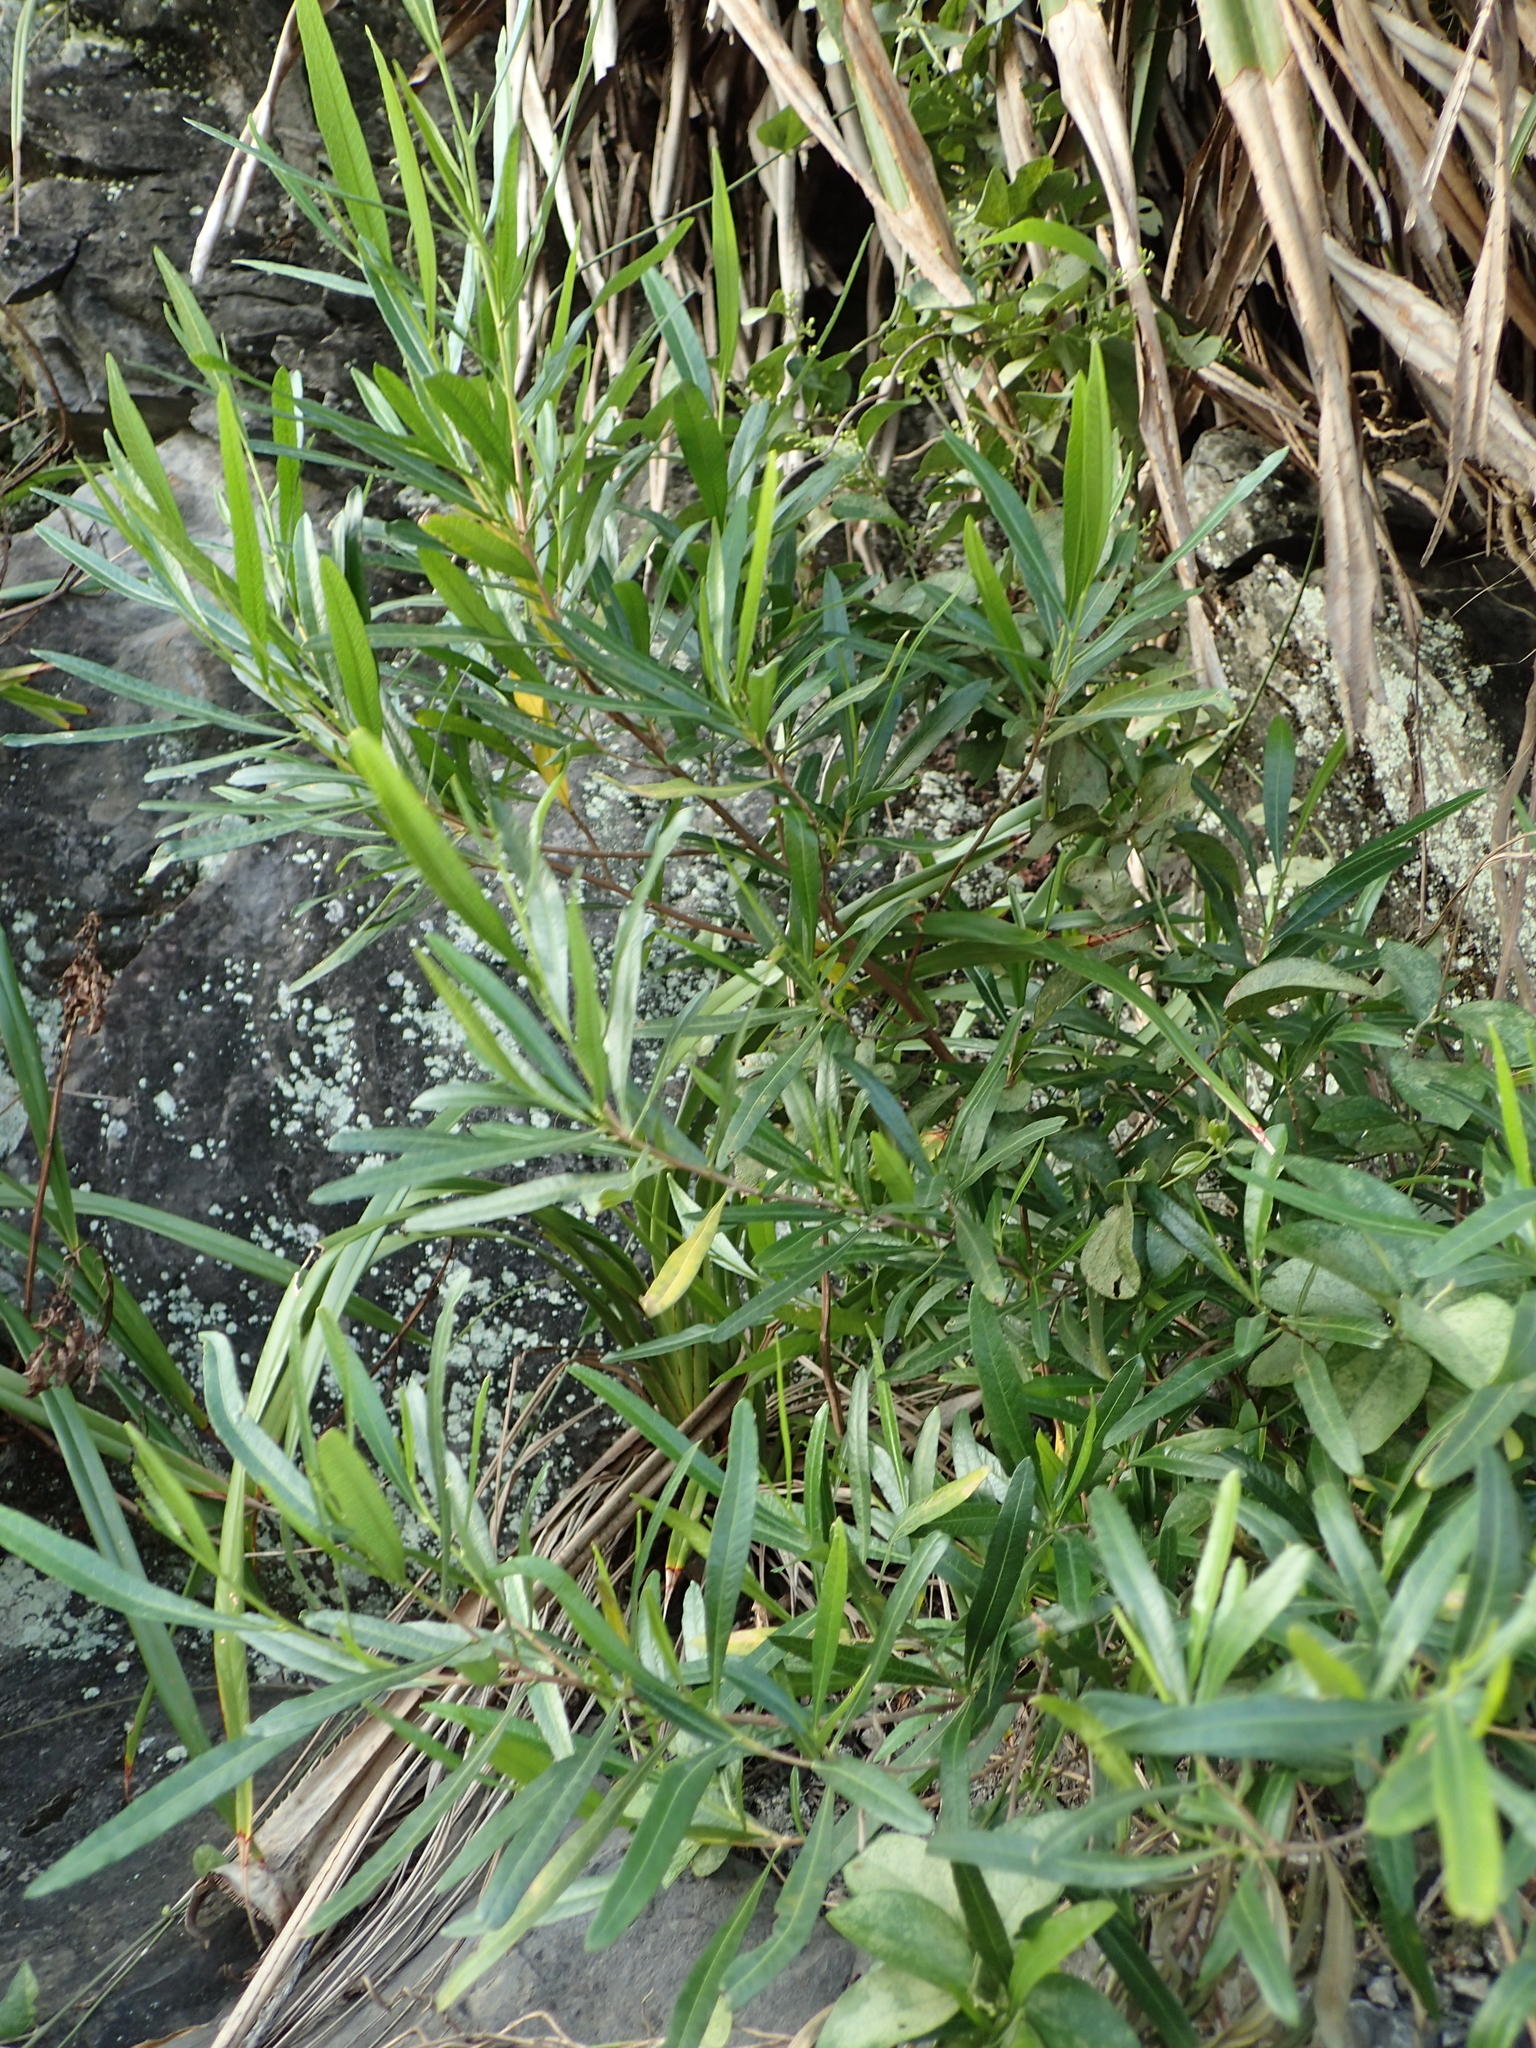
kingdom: Plantae
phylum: Tracheophyta
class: Magnoliopsida
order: Sapindales
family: Sapindaceae
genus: Dodonaea
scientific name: Dodonaea viscosa
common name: Hopbush
